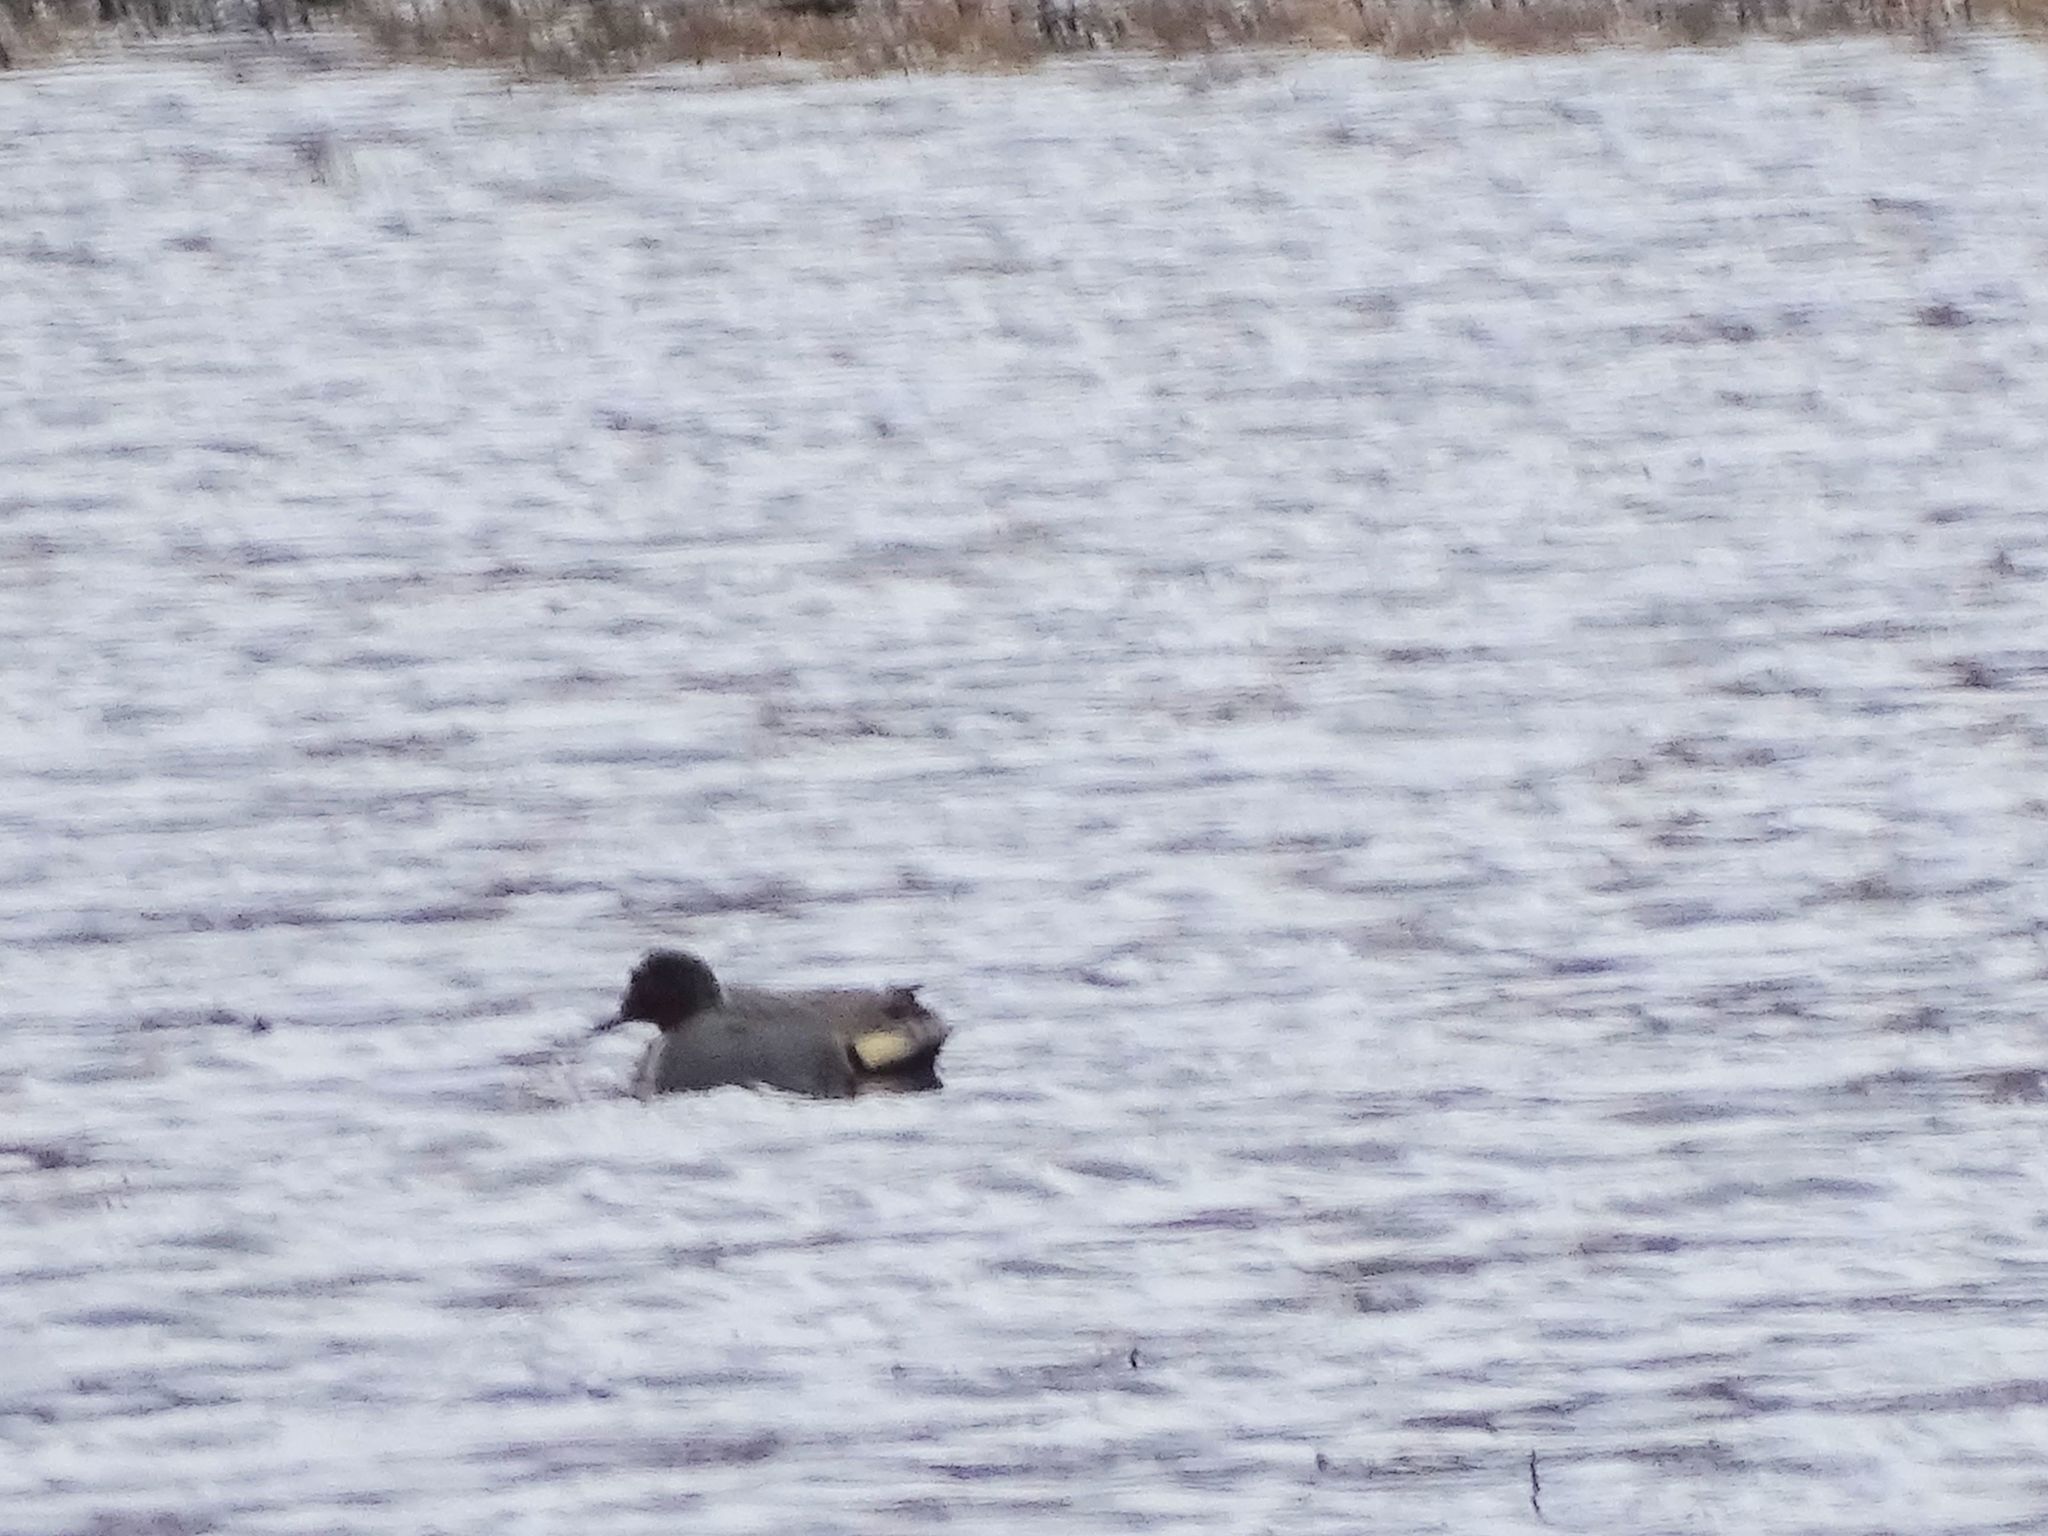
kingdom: Animalia
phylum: Chordata
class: Aves
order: Anseriformes
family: Anatidae
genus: Anas
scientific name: Anas crecca
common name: Eurasian teal
